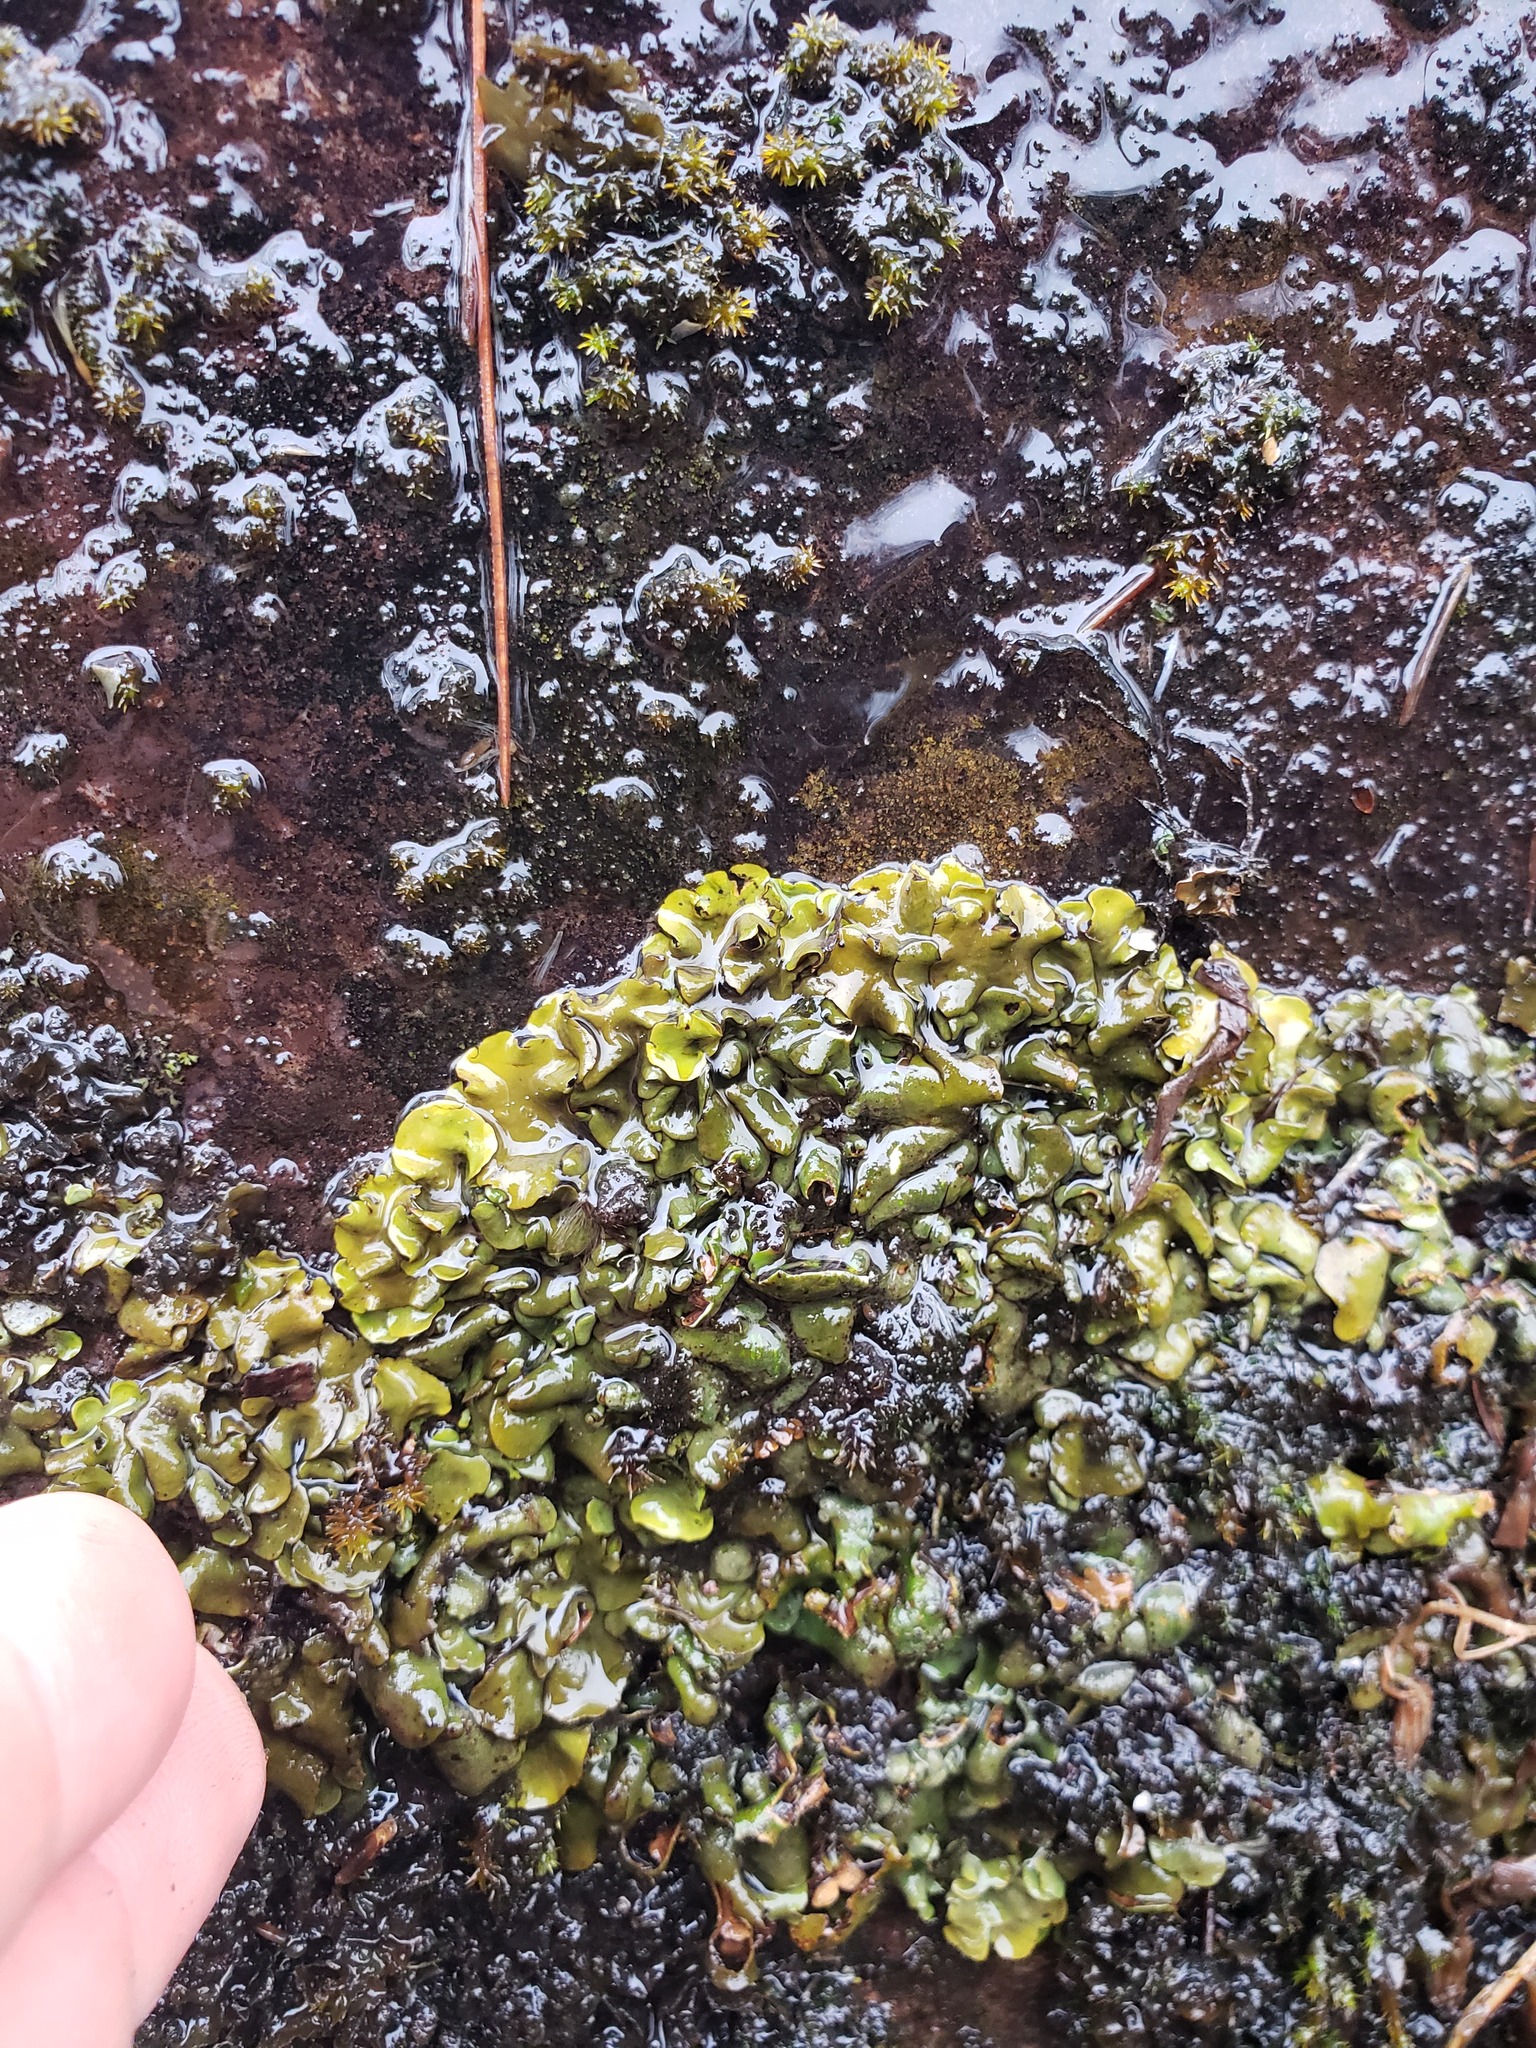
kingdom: Fungi
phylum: Ascomycota
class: Eurotiomycetes
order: Verrucariales
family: Verrucariaceae
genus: Dermatocarpon
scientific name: Dermatocarpon luridum
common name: Brook stippleback lichen
